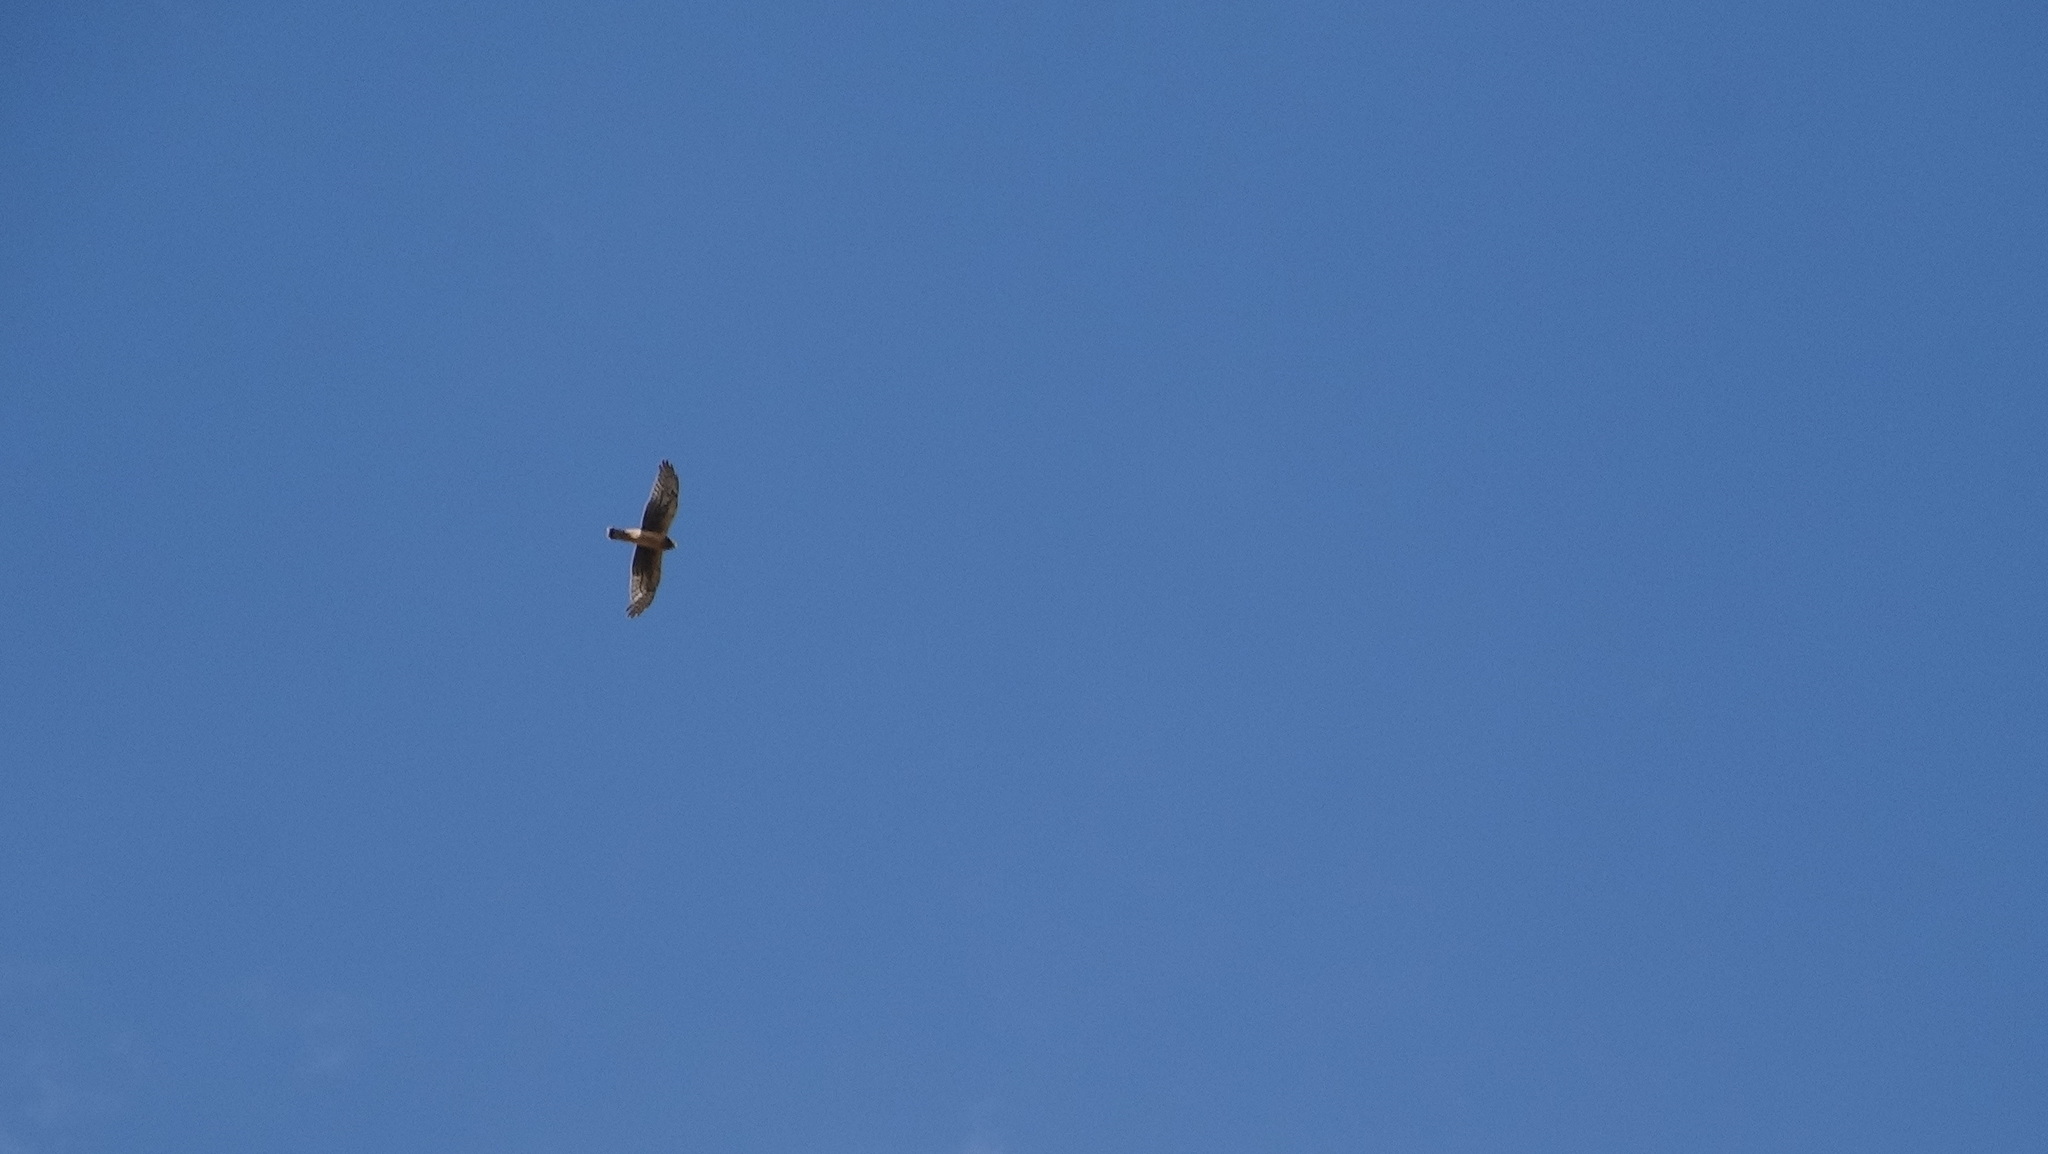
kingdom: Animalia
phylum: Chordata
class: Aves
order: Accipitriformes
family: Accipitridae
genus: Circus
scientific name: Circus cyaneus
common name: Hen harrier
